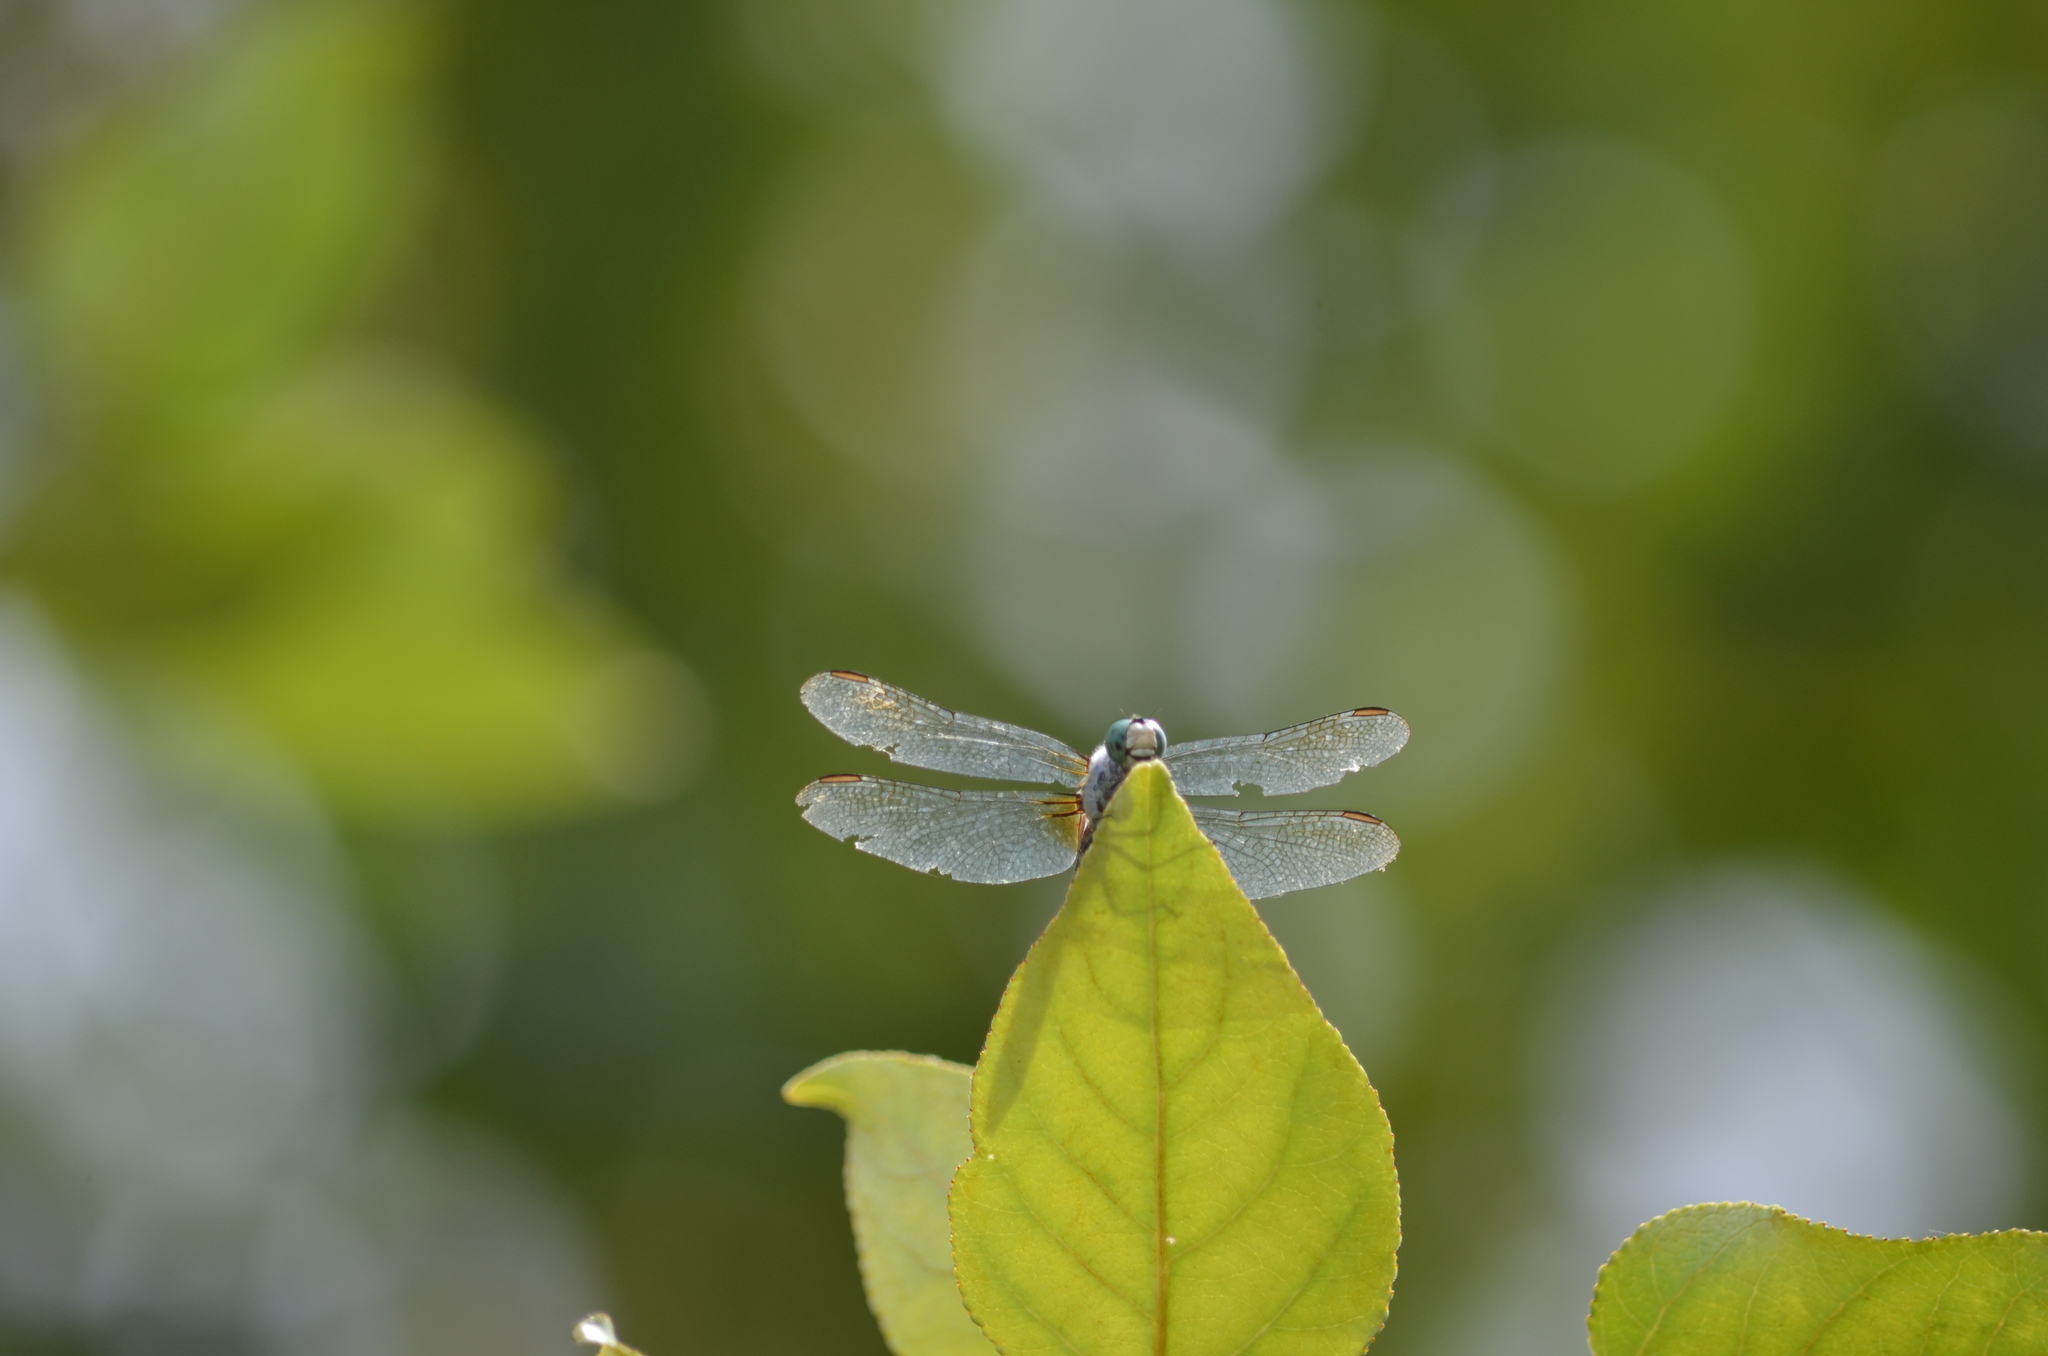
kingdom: Animalia
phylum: Arthropoda
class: Insecta
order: Odonata
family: Libellulidae
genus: Pachydiplax
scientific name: Pachydiplax longipennis
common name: Blue dasher
